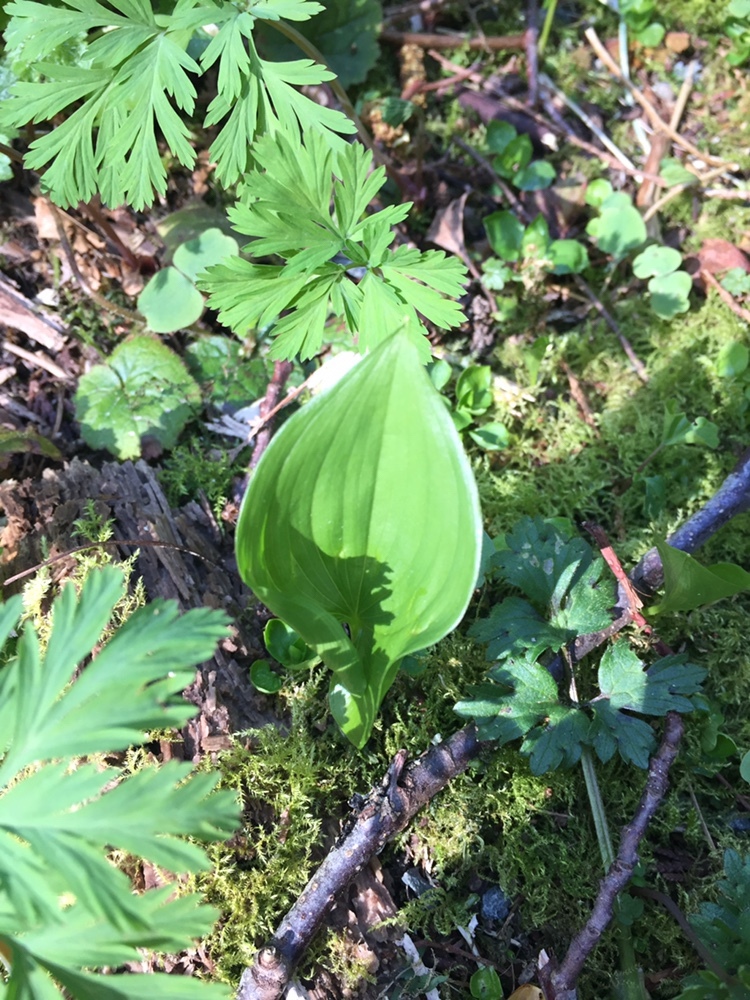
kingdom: Plantae
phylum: Tracheophyta
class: Liliopsida
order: Asparagales
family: Asparagaceae
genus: Maianthemum
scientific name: Maianthemum dilatatum
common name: False lily-of-the-valley
